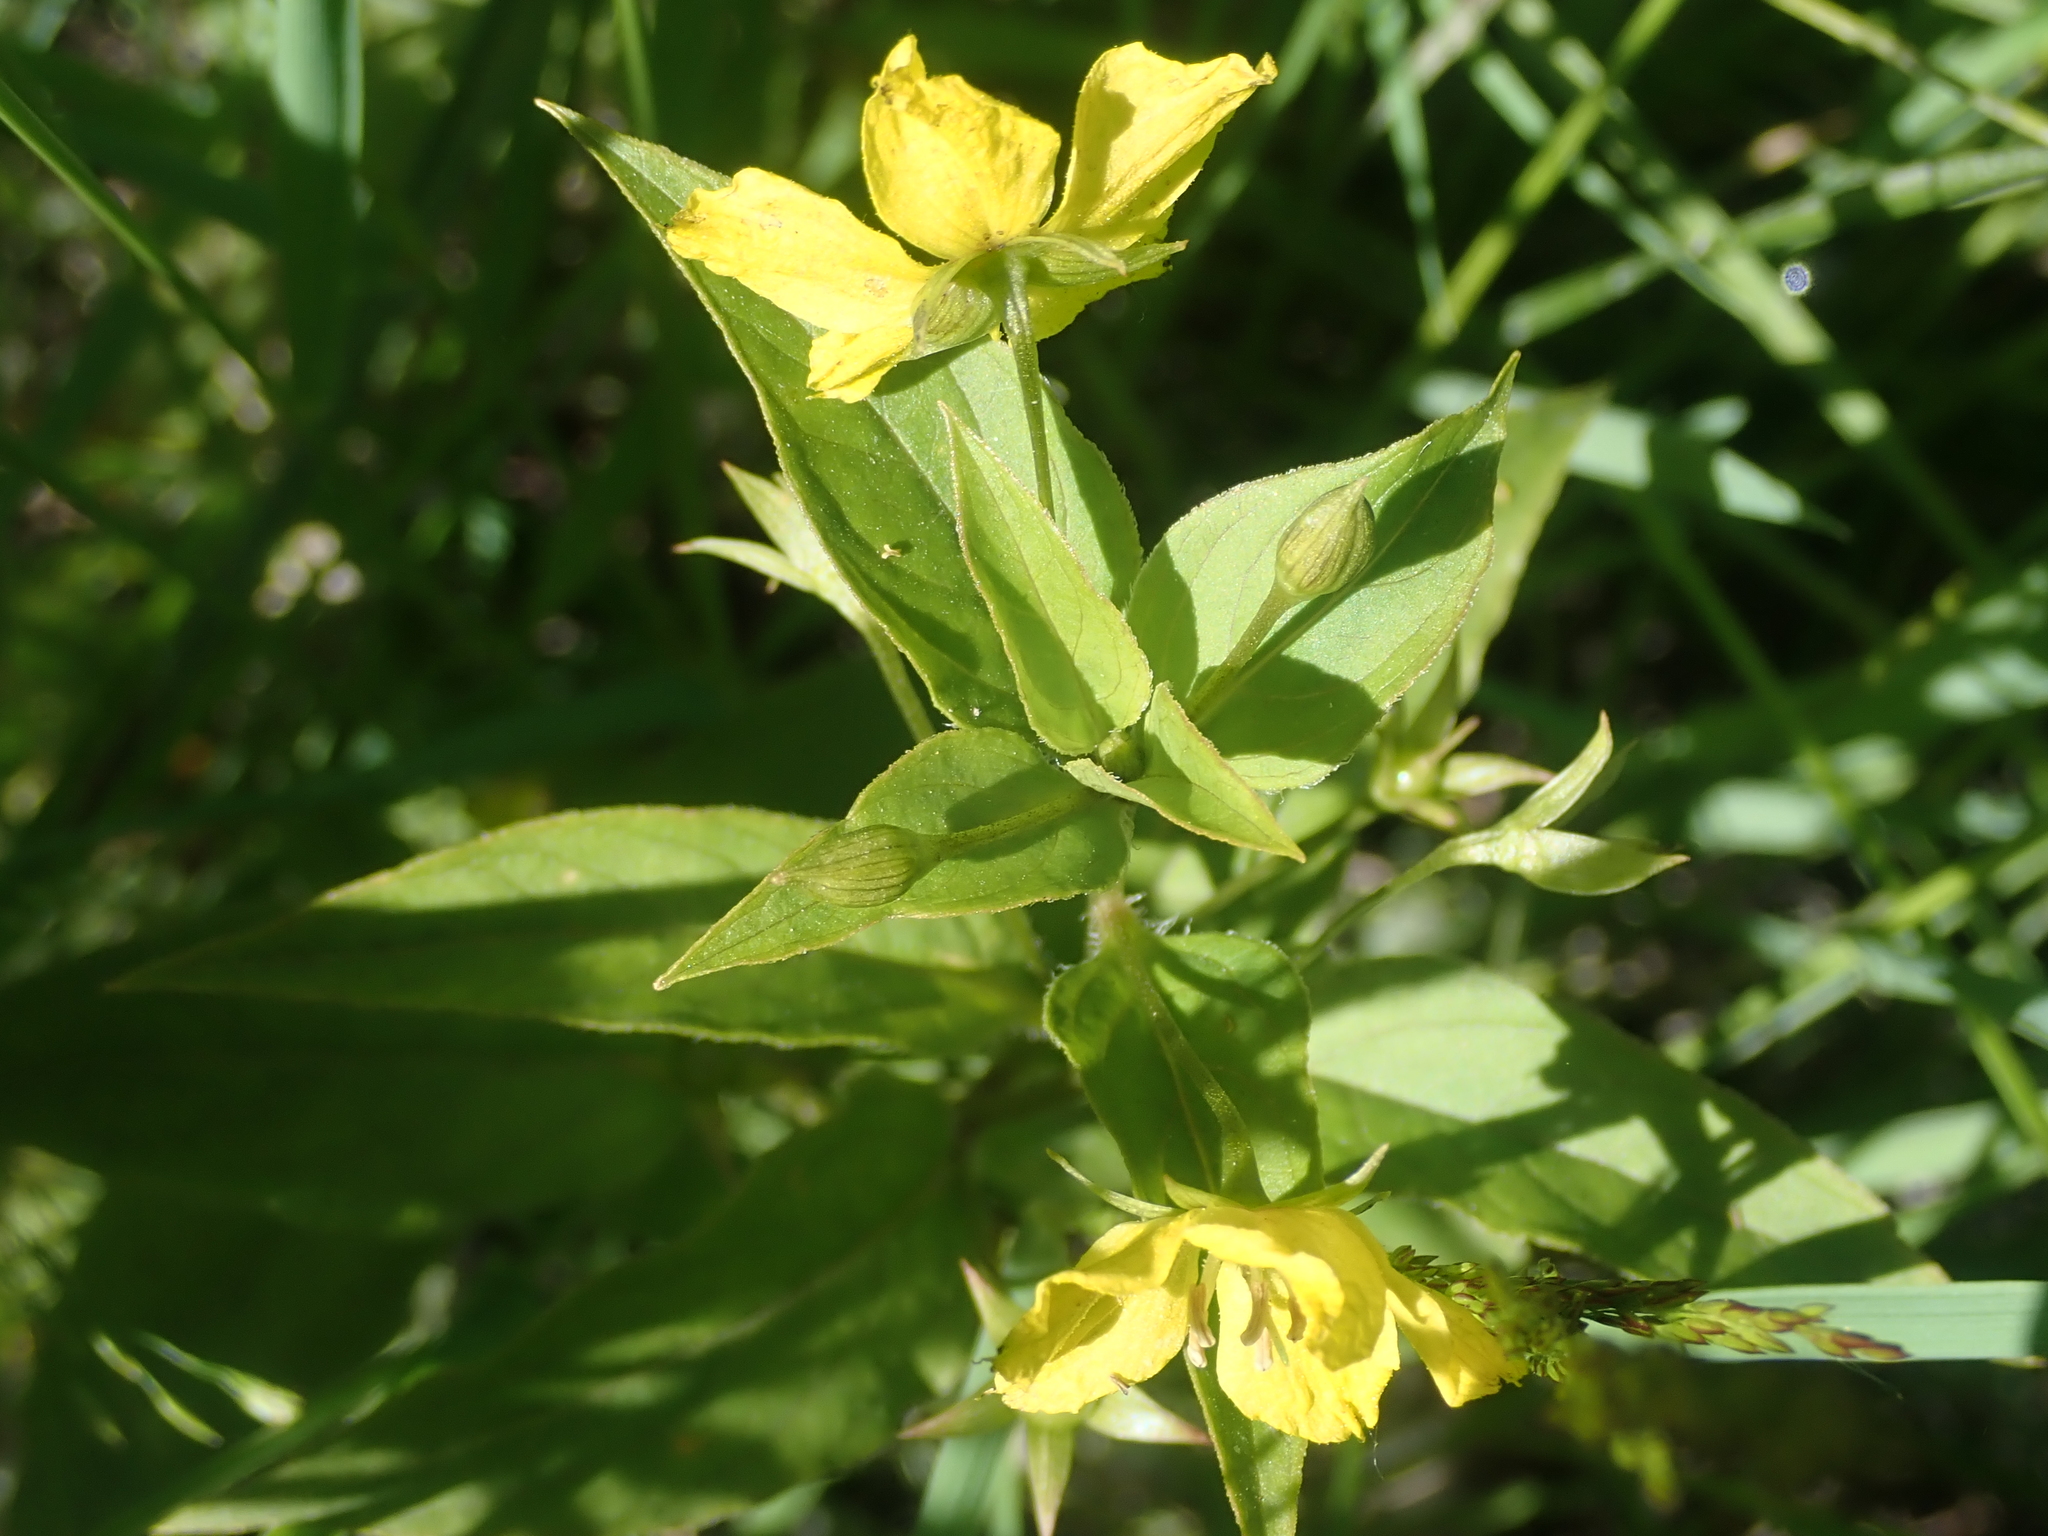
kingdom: Plantae
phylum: Tracheophyta
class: Magnoliopsida
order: Ericales
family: Primulaceae
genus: Lysimachia
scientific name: Lysimachia ciliata
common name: Fringed loosestrife
